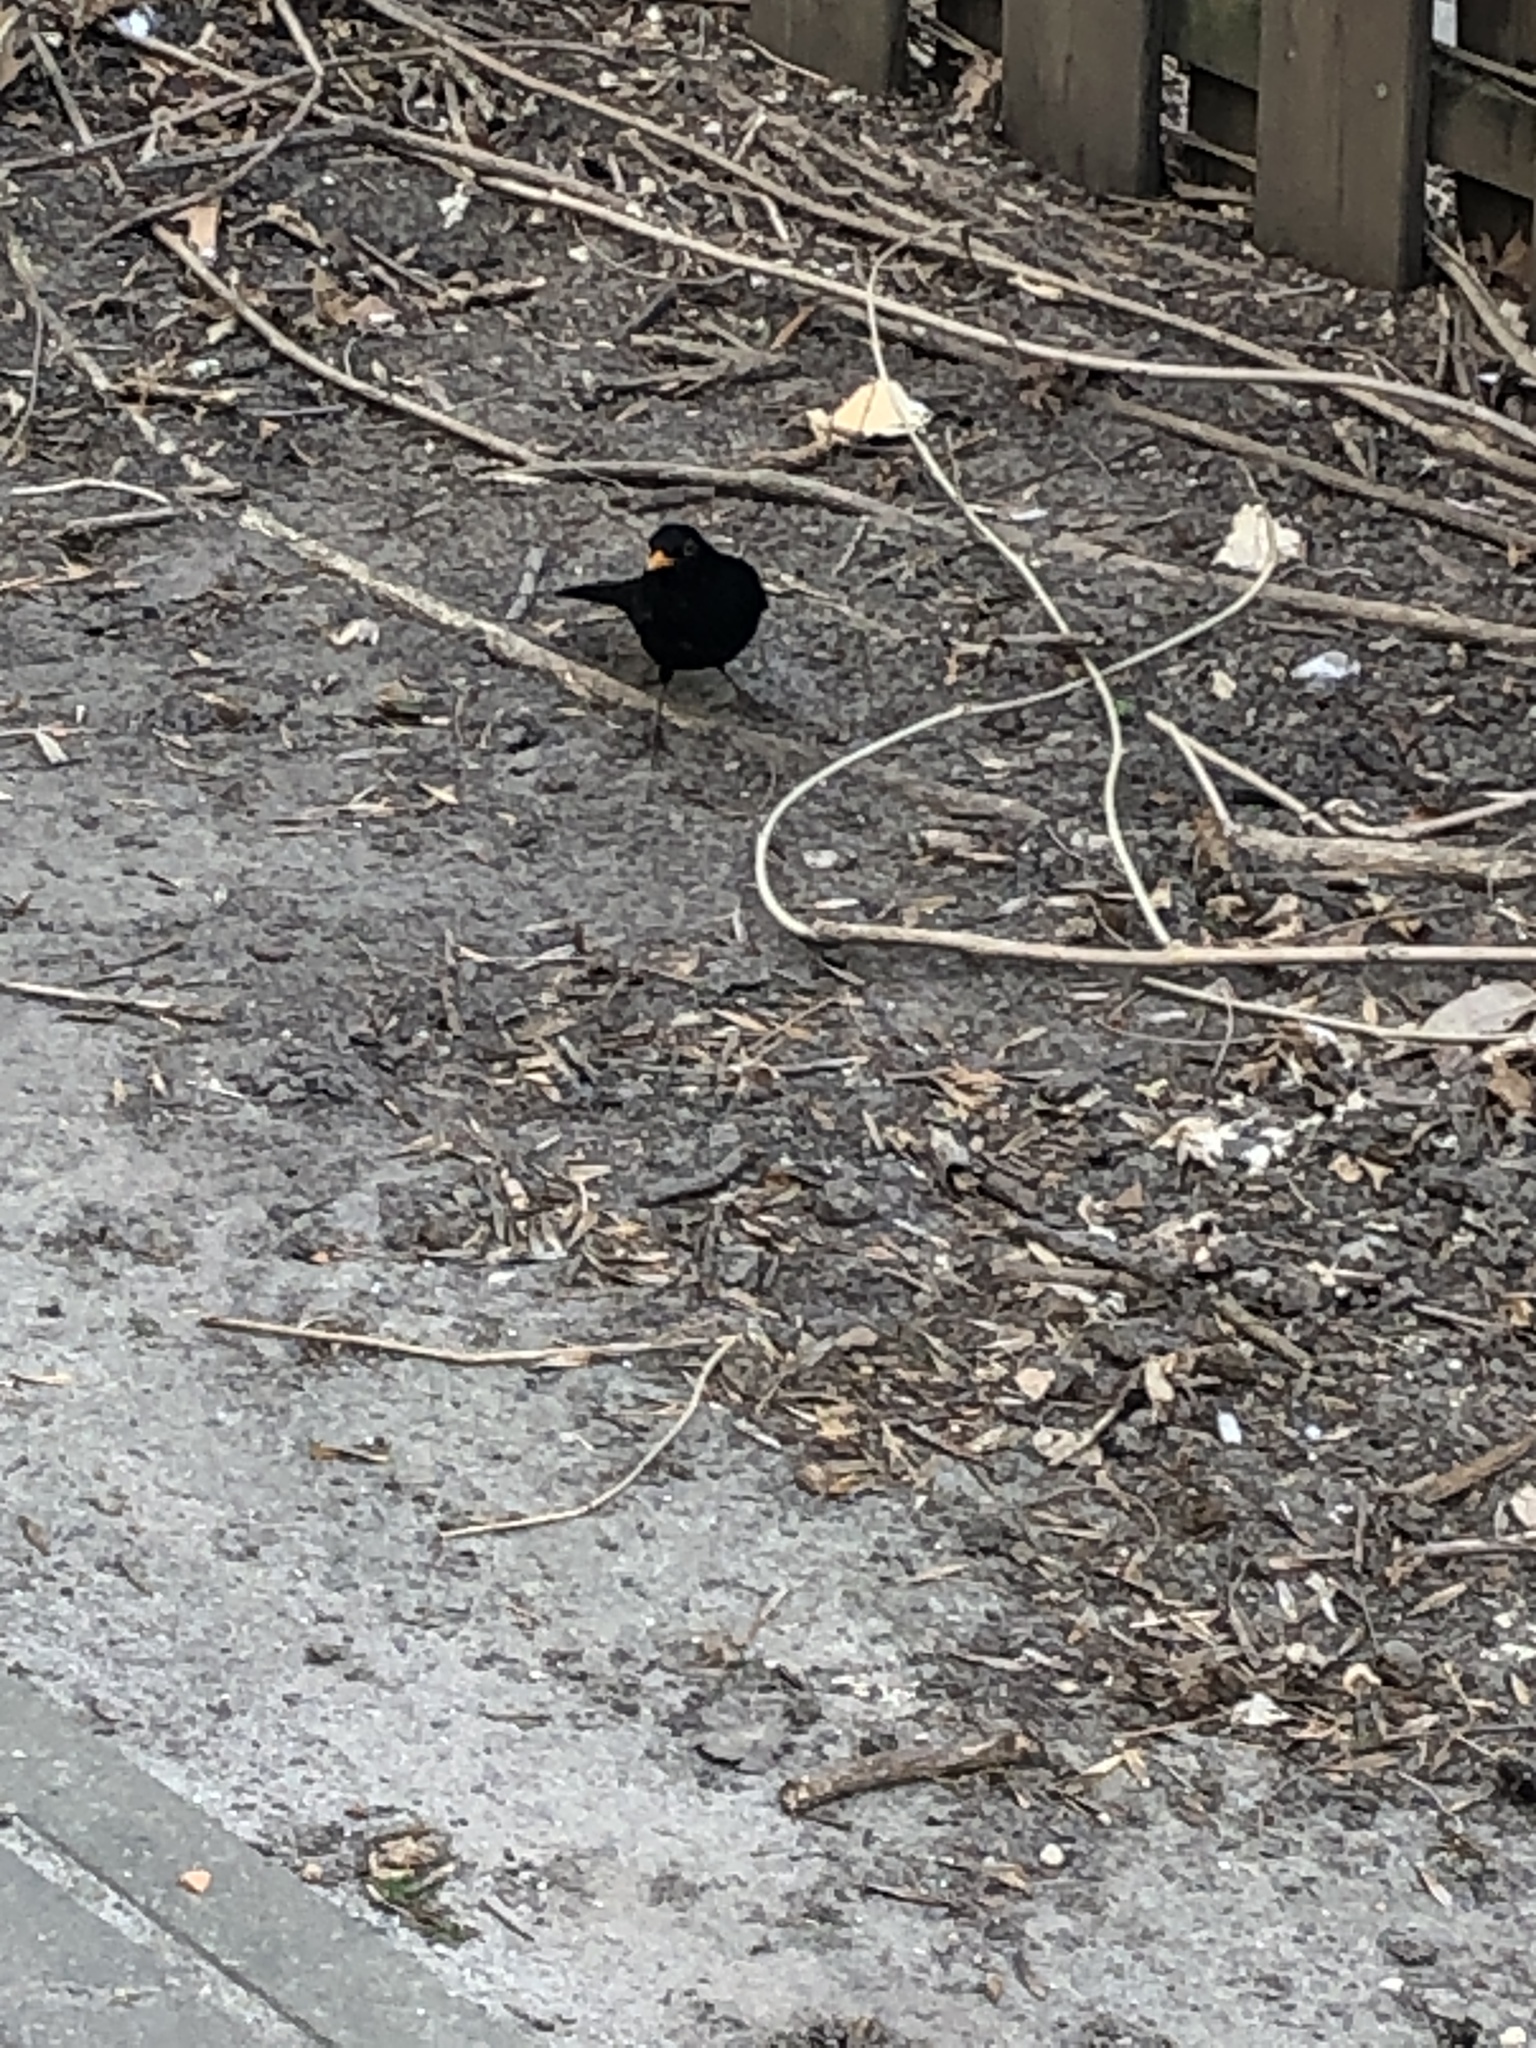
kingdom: Animalia
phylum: Chordata
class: Aves
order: Passeriformes
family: Turdidae
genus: Turdus
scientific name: Turdus merula
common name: Common blackbird
